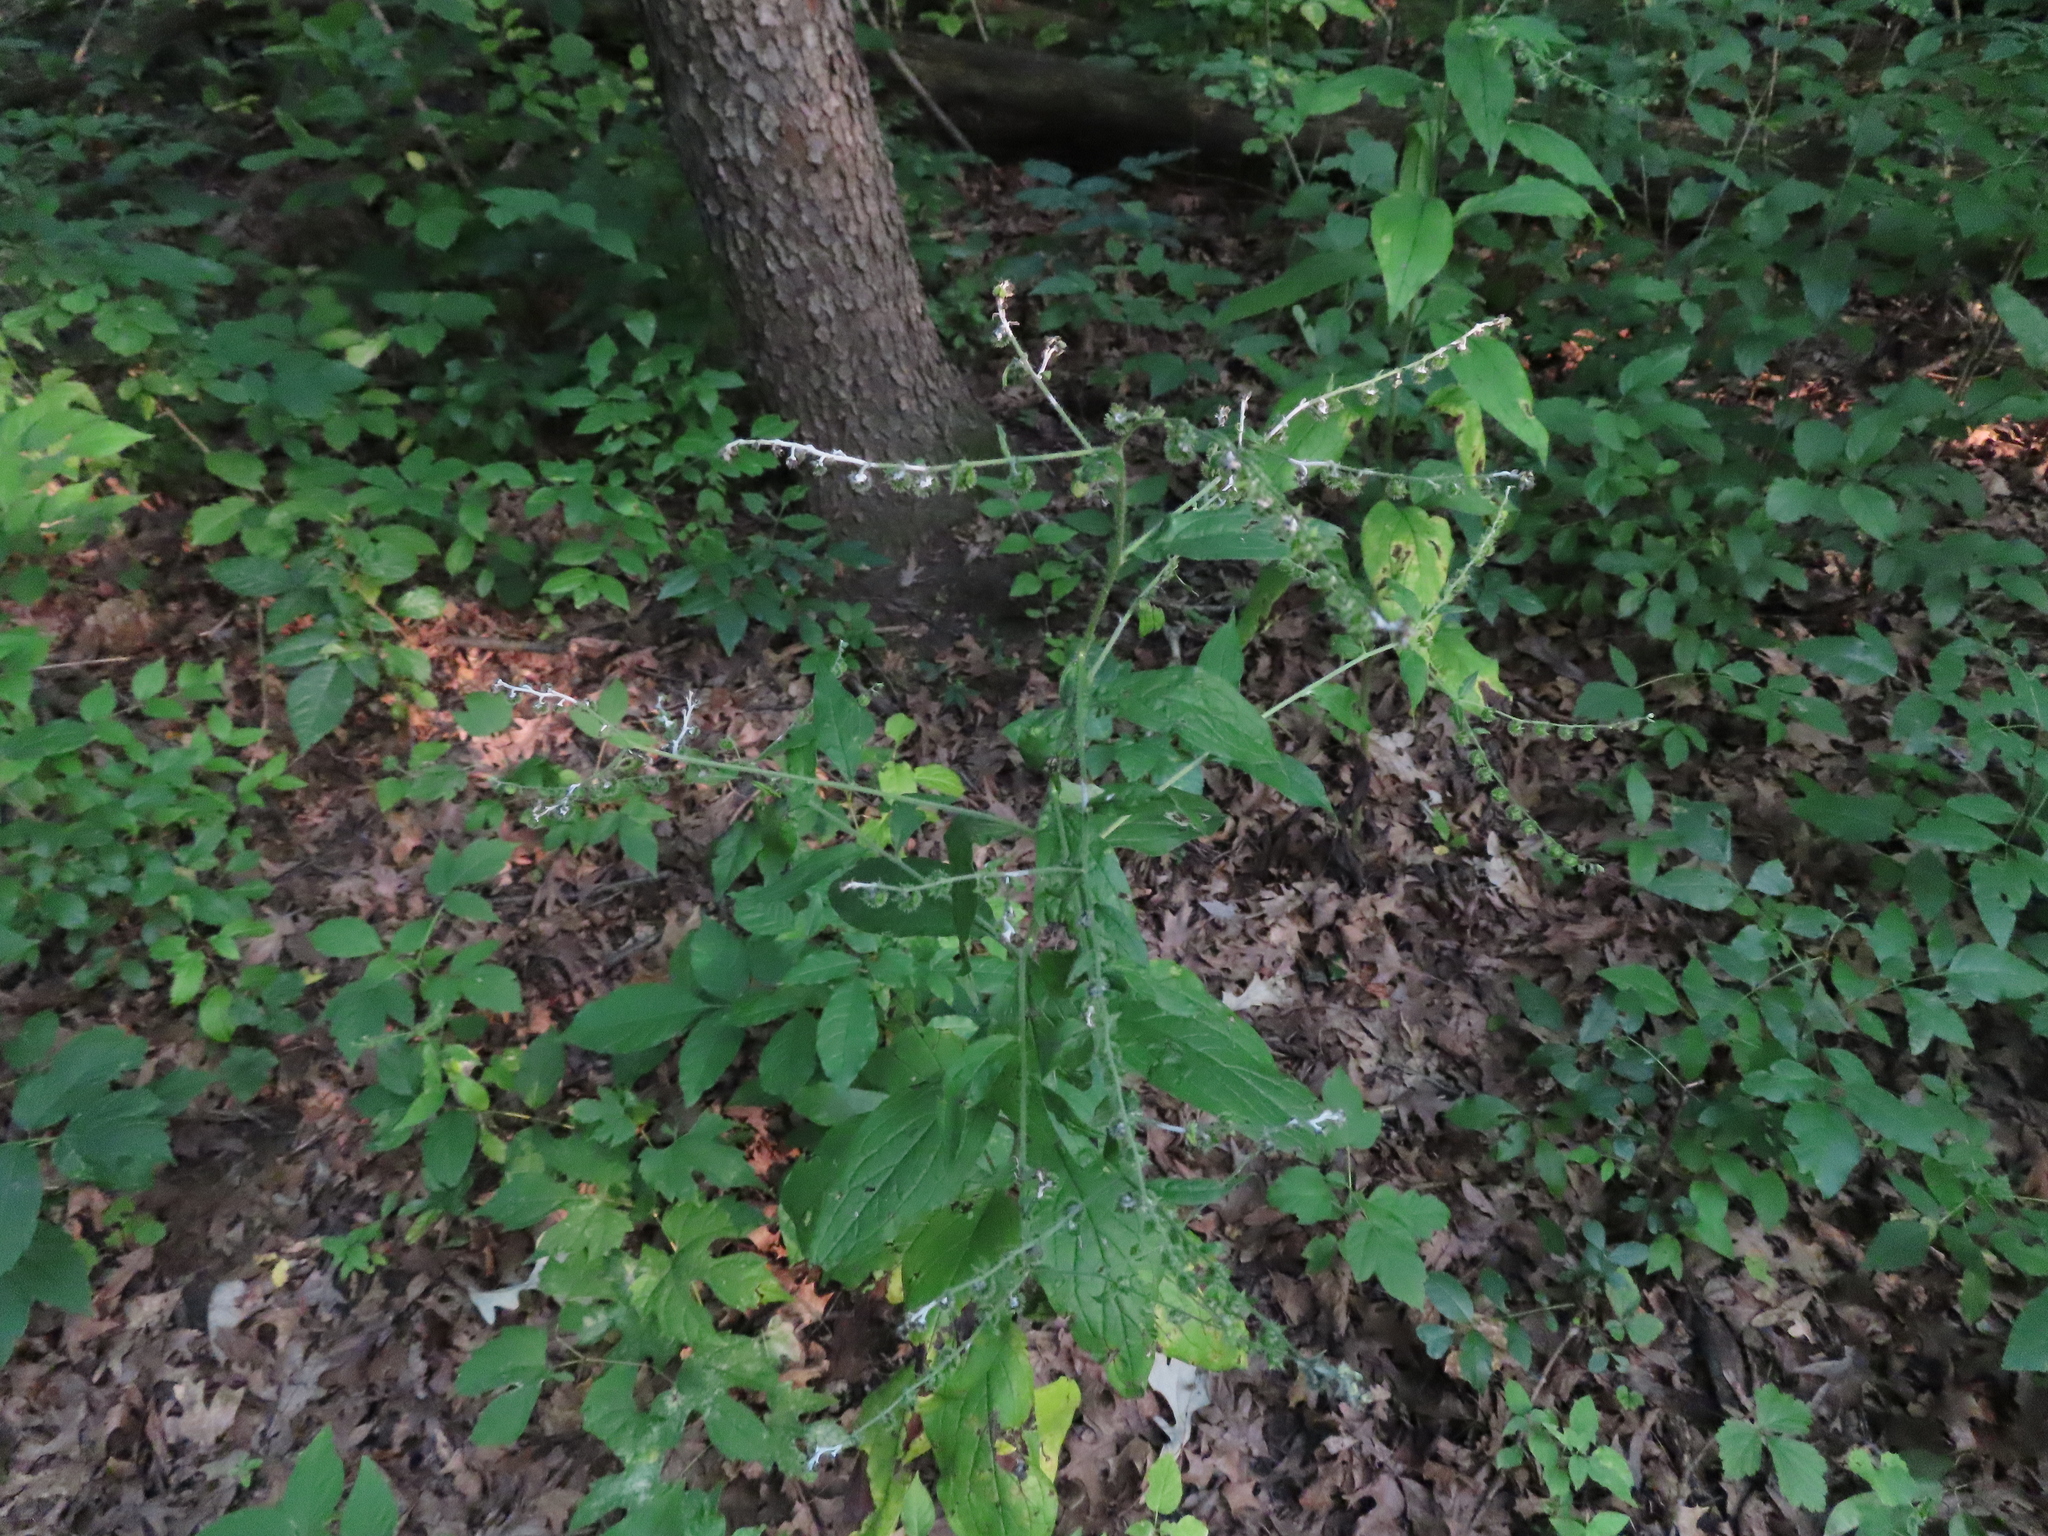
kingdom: Plantae
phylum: Tracheophyta
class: Magnoliopsida
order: Boraginales
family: Boraginaceae
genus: Hackelia
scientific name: Hackelia virginiana
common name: Beggar's-lice
